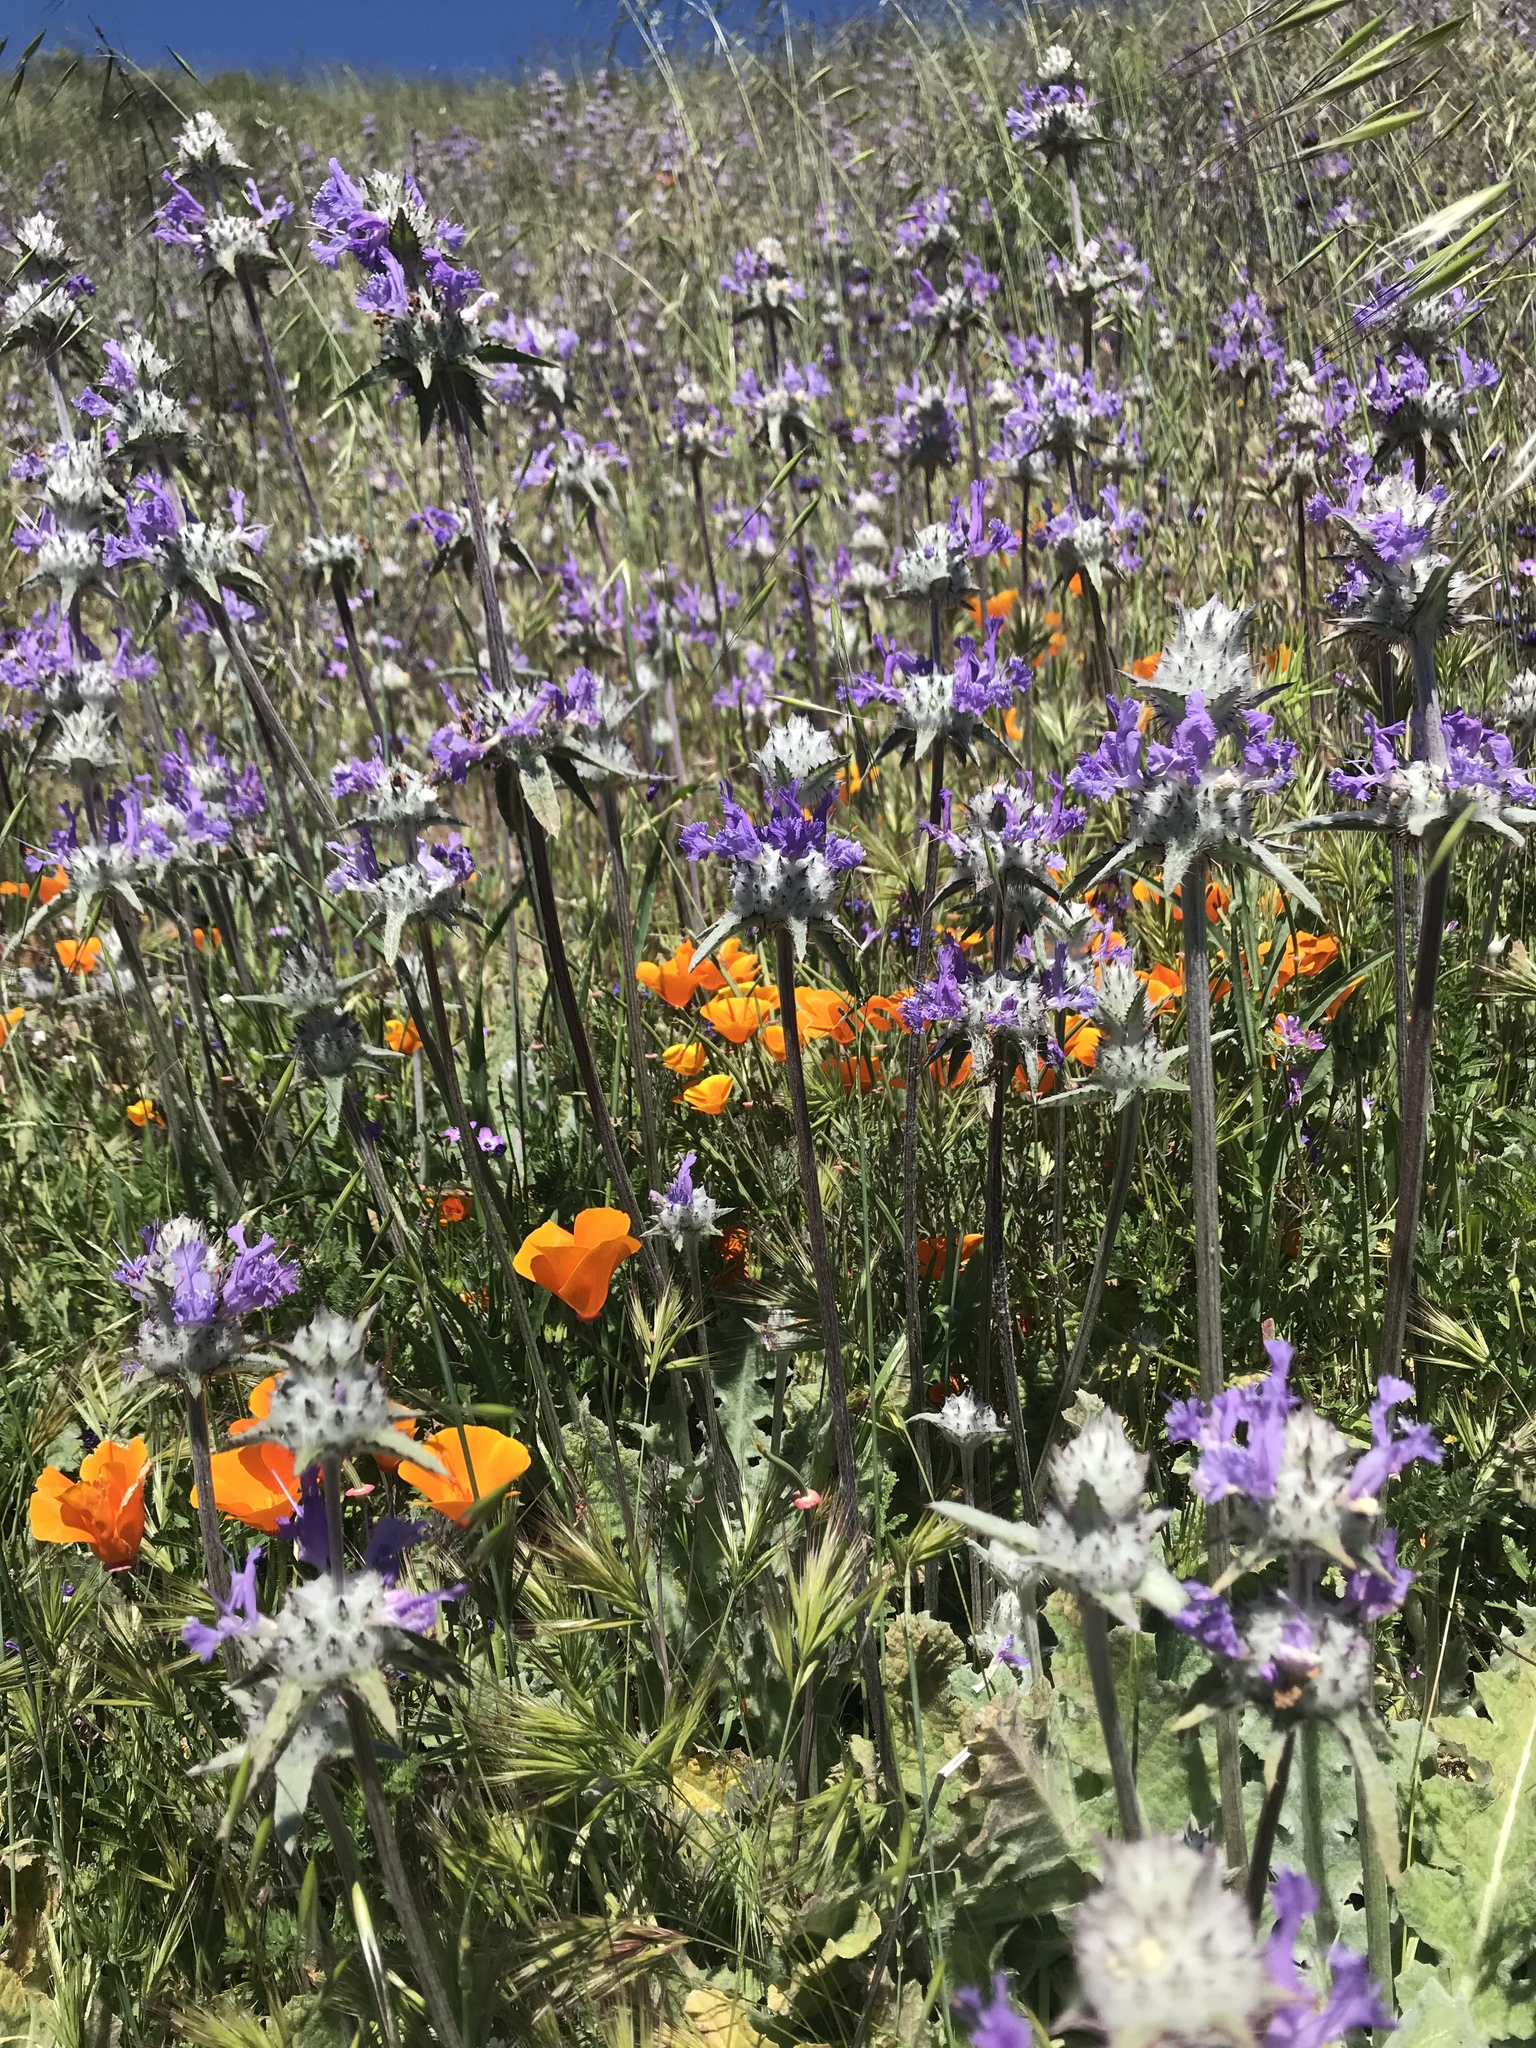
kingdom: Plantae
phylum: Tracheophyta
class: Magnoliopsida
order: Lamiales
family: Lamiaceae
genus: Salvia
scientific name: Salvia carduacea
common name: Thistle sage
